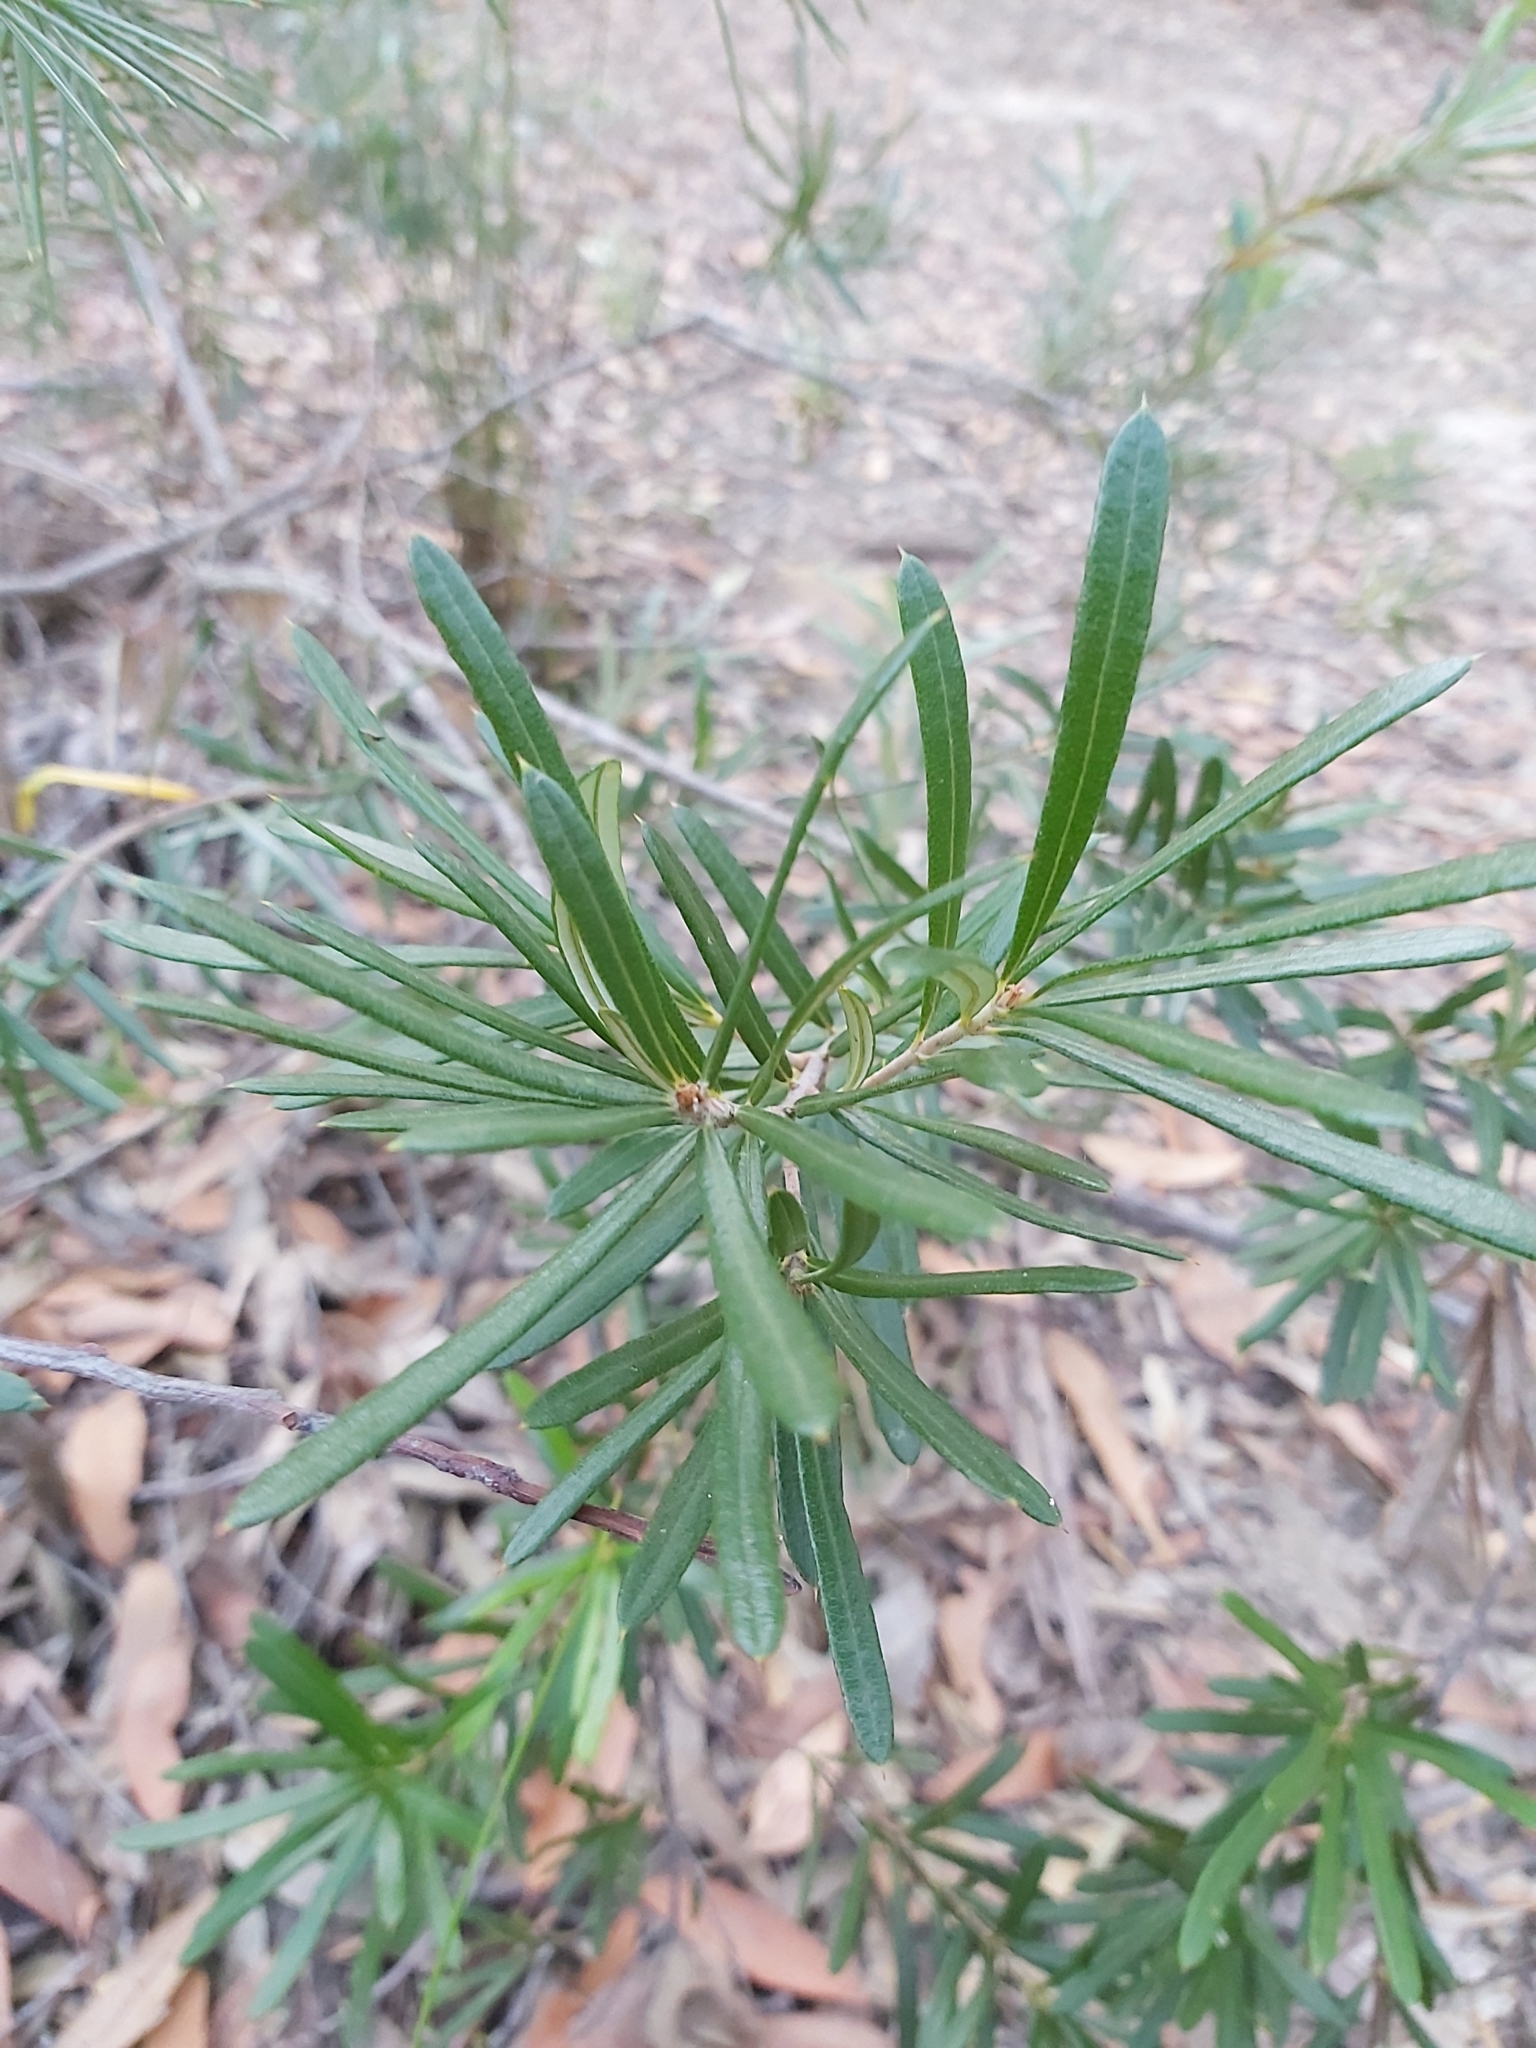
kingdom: Plantae
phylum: Tracheophyta
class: Magnoliopsida
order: Proteales
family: Proteaceae
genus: Lambertia
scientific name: Lambertia formosa
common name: Mountain-devil
